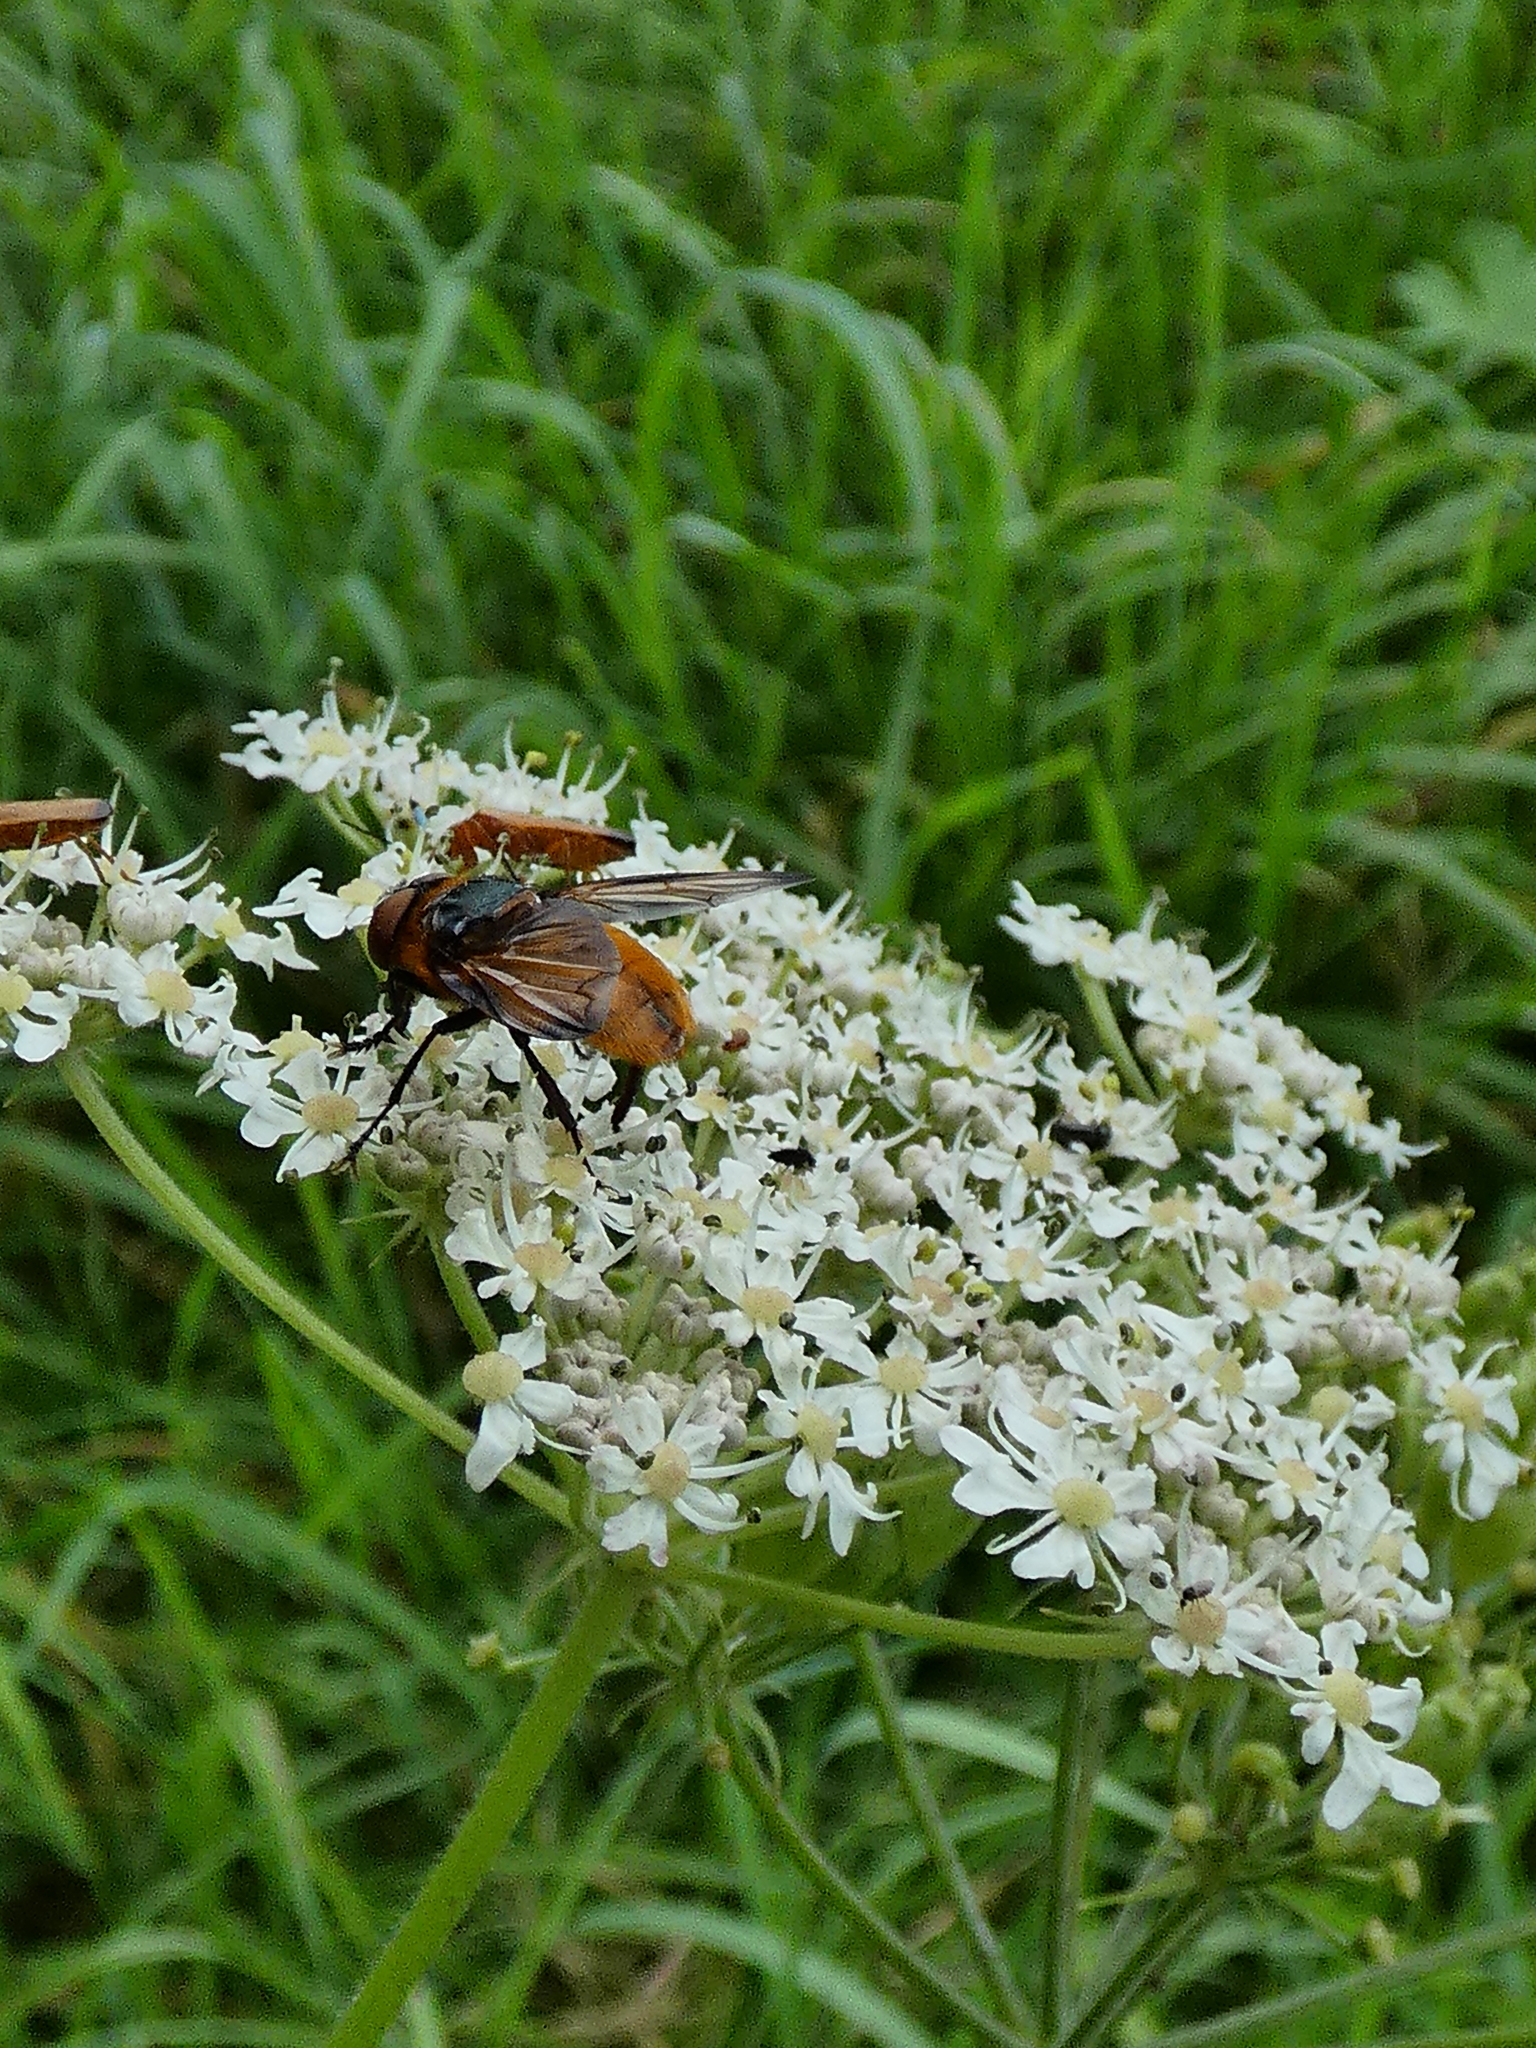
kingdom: Animalia
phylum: Arthropoda
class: Insecta
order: Diptera
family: Tachinidae
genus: Phasia
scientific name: Phasia hemiptera
